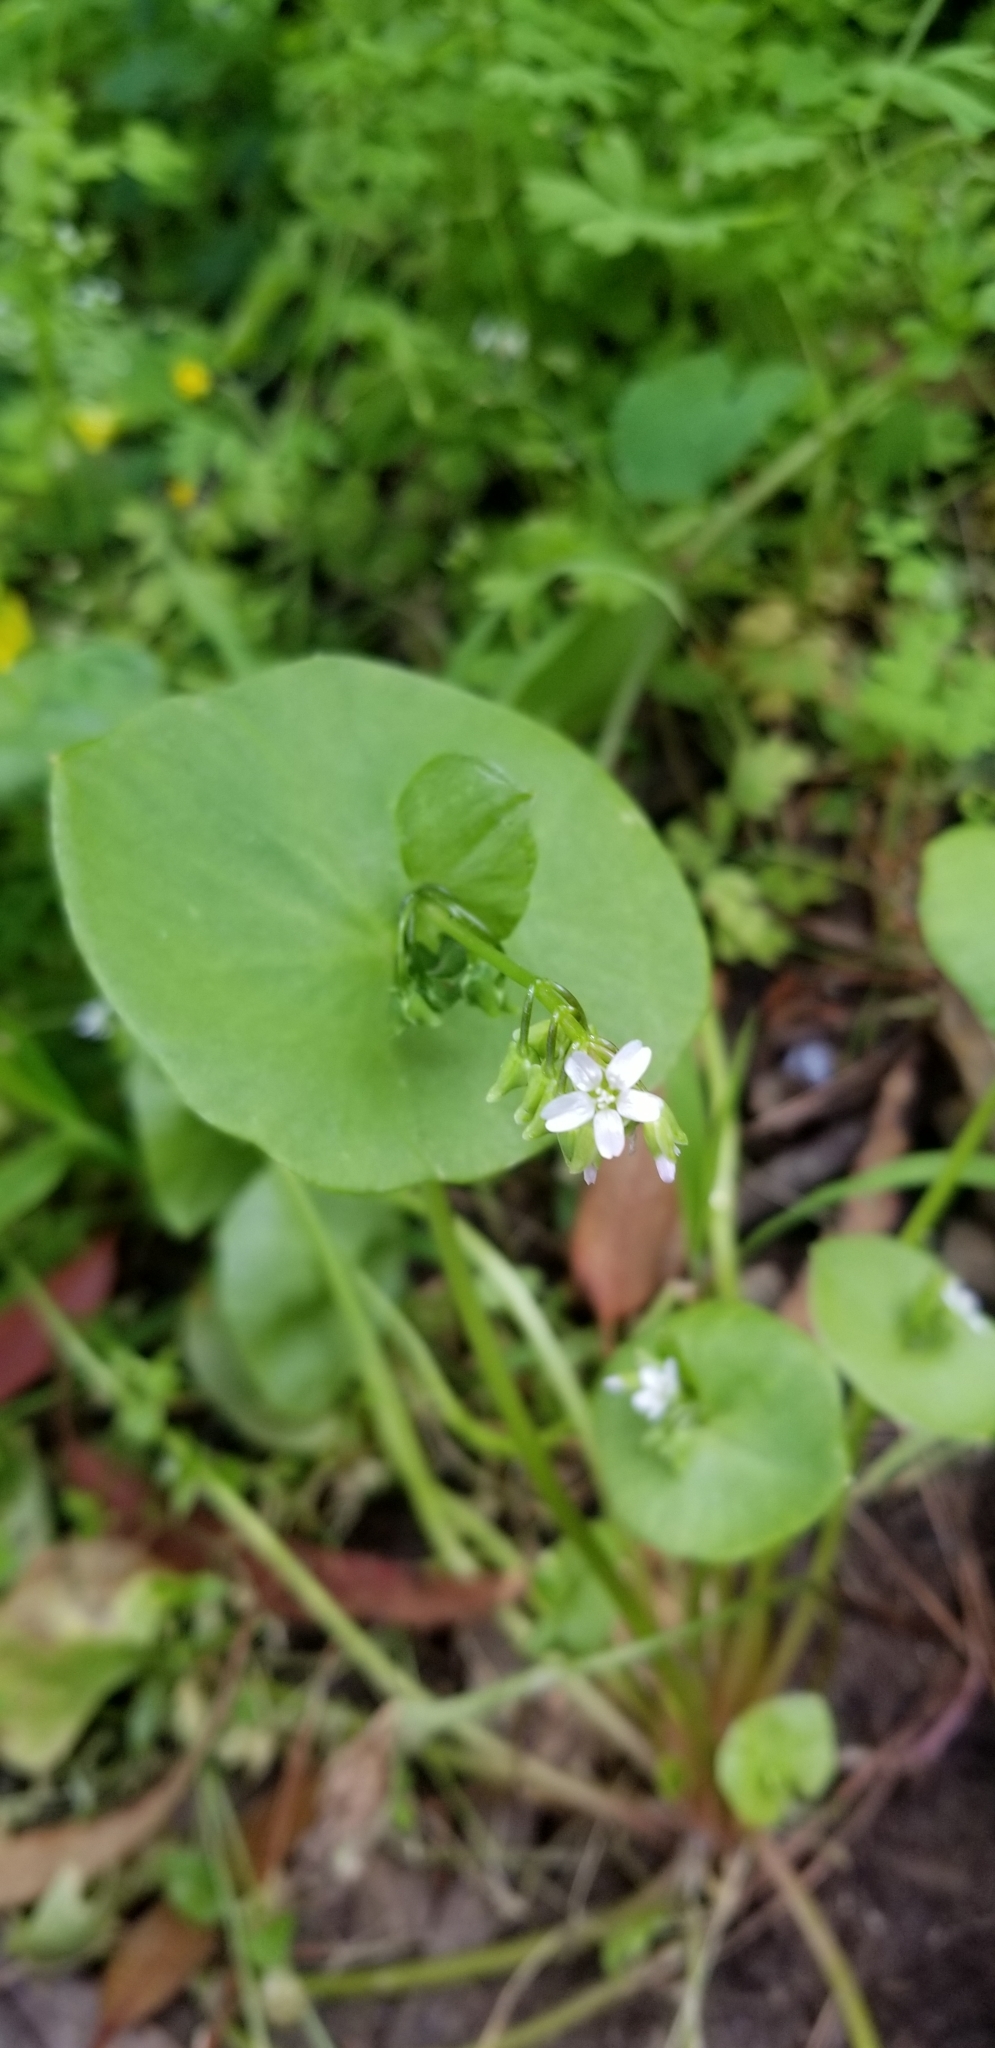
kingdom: Plantae
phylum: Tracheophyta
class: Magnoliopsida
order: Caryophyllales
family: Montiaceae
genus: Claytonia
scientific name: Claytonia perfoliata
